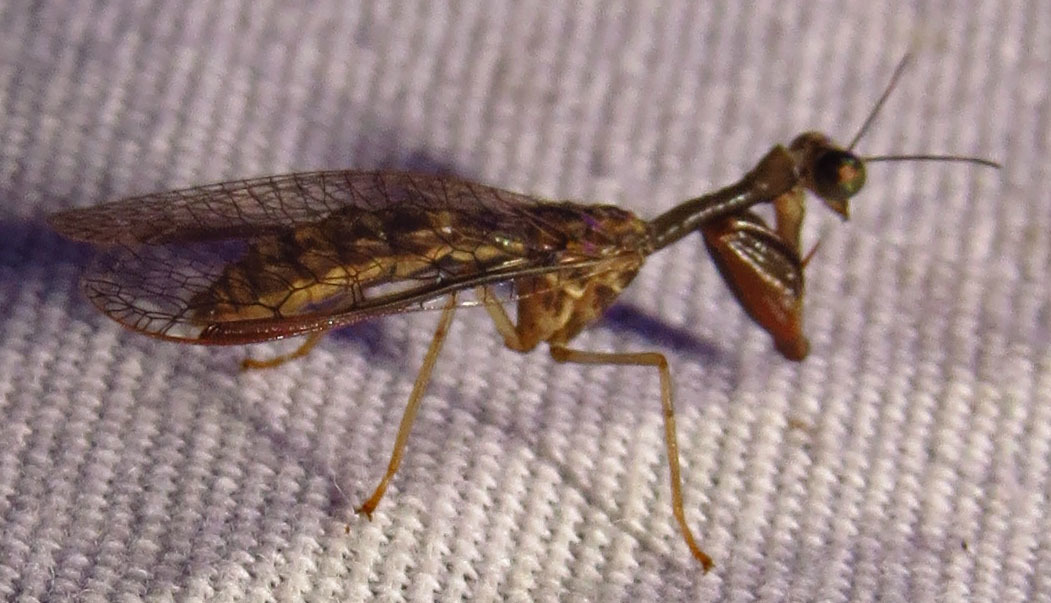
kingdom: Animalia
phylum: Arthropoda
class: Insecta
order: Neuroptera
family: Mantispidae
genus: Dicromantispa
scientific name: Dicromantispa sayi
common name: Say's mantidfly
